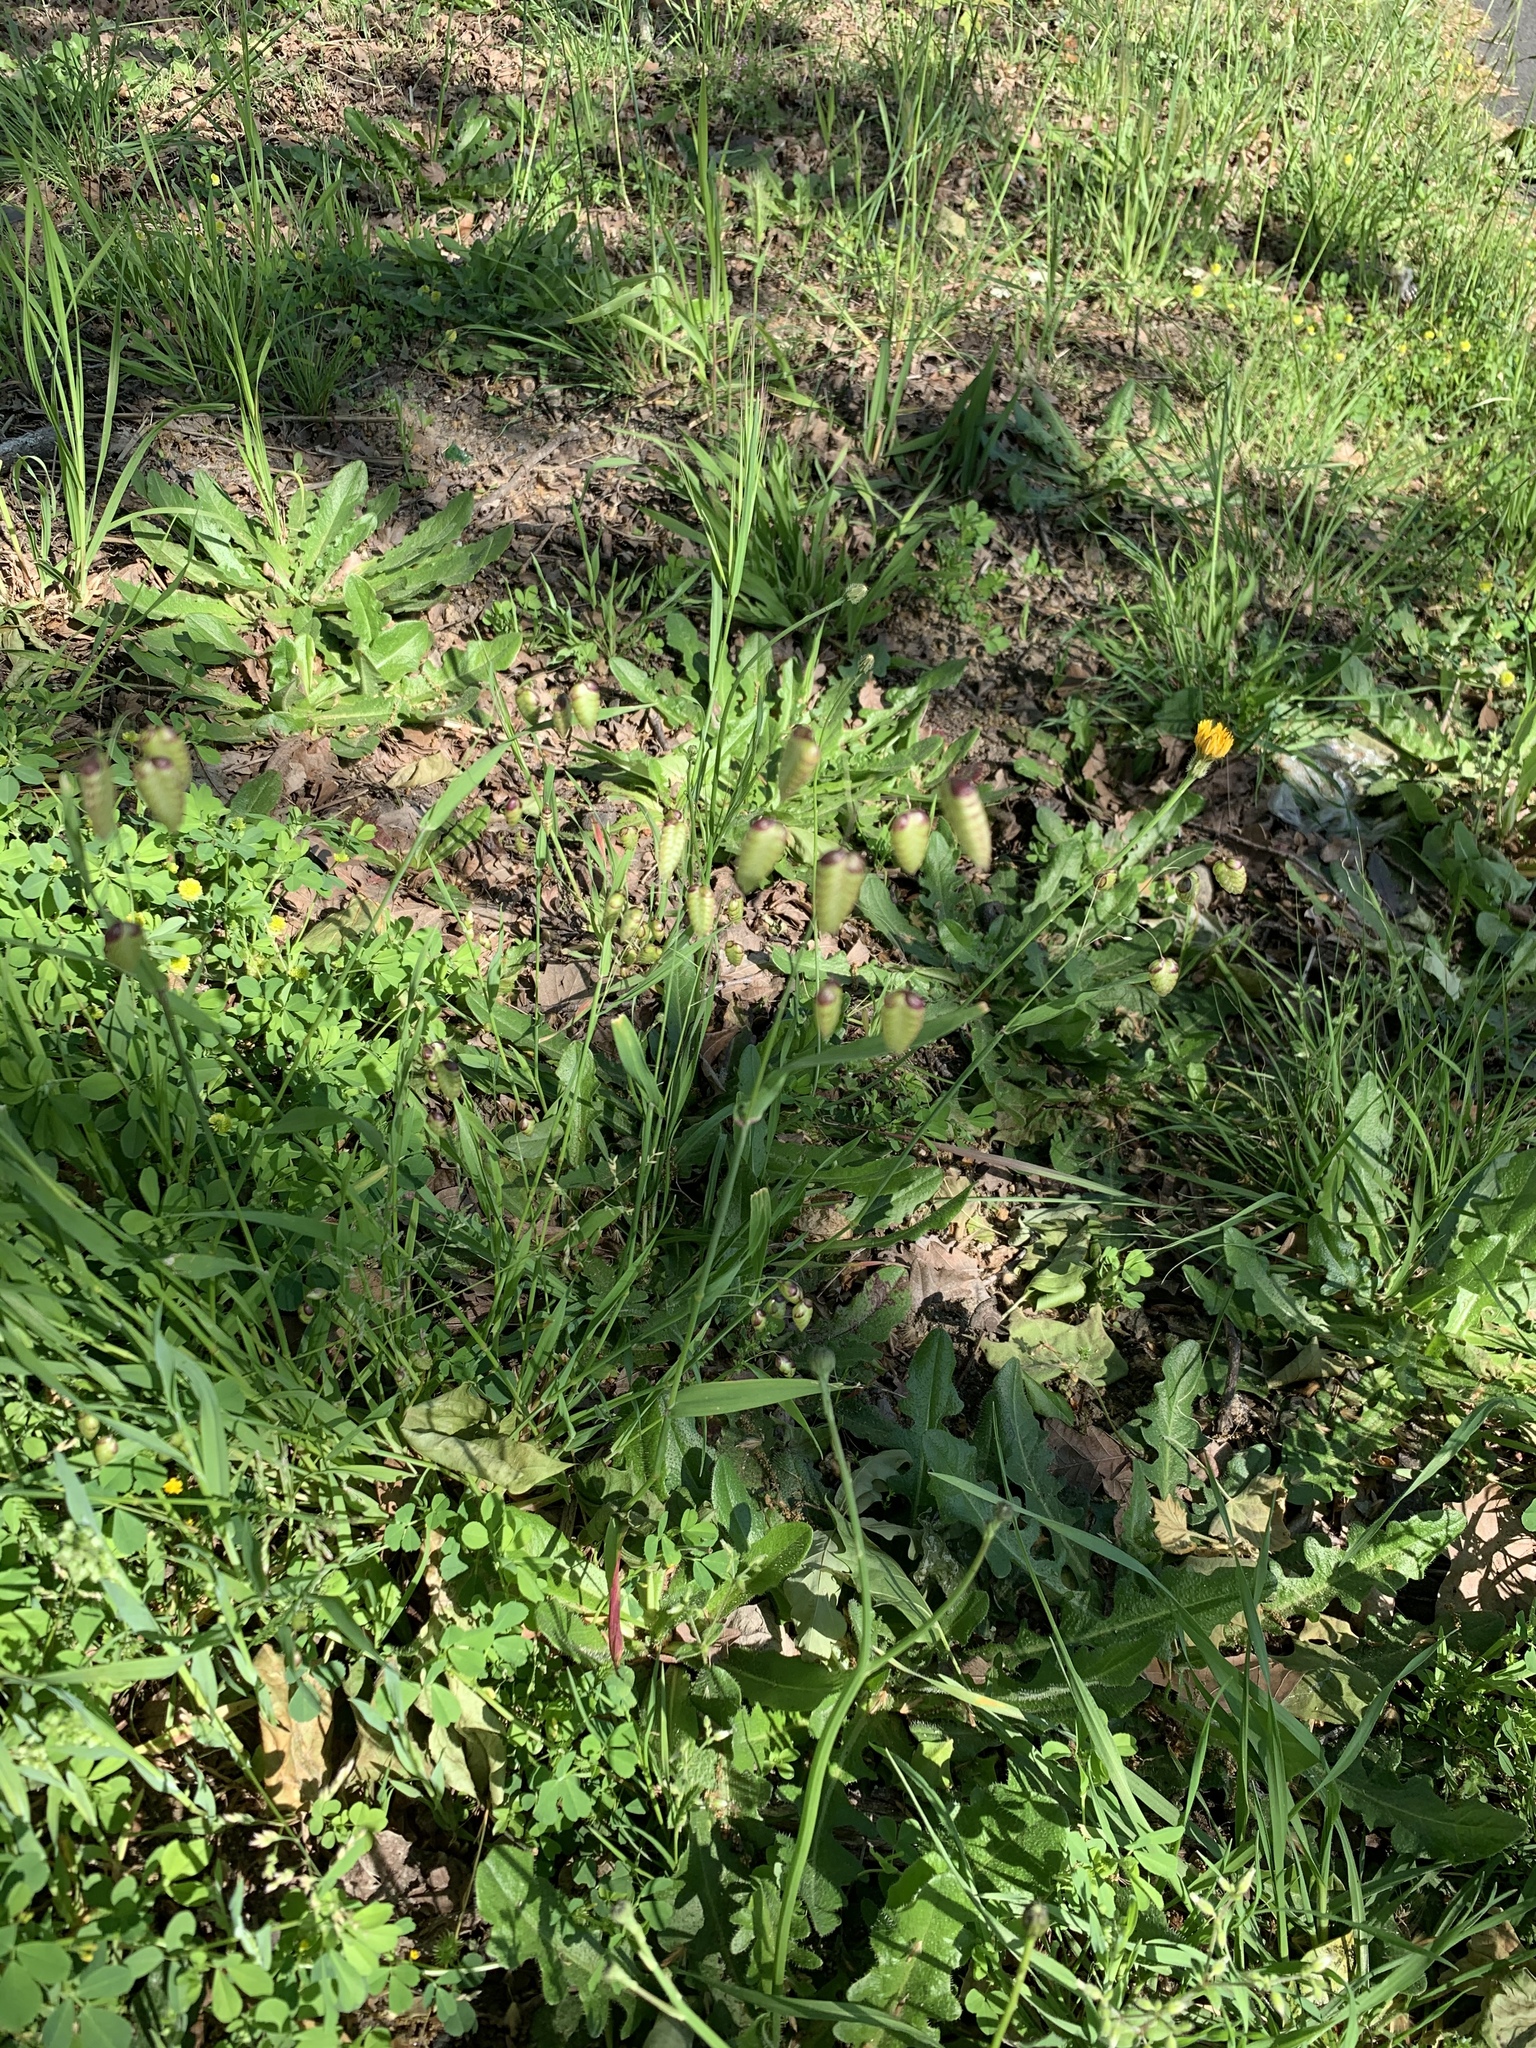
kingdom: Plantae
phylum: Tracheophyta
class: Liliopsida
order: Poales
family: Poaceae
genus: Briza
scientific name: Briza maxima
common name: Big quakinggrass
